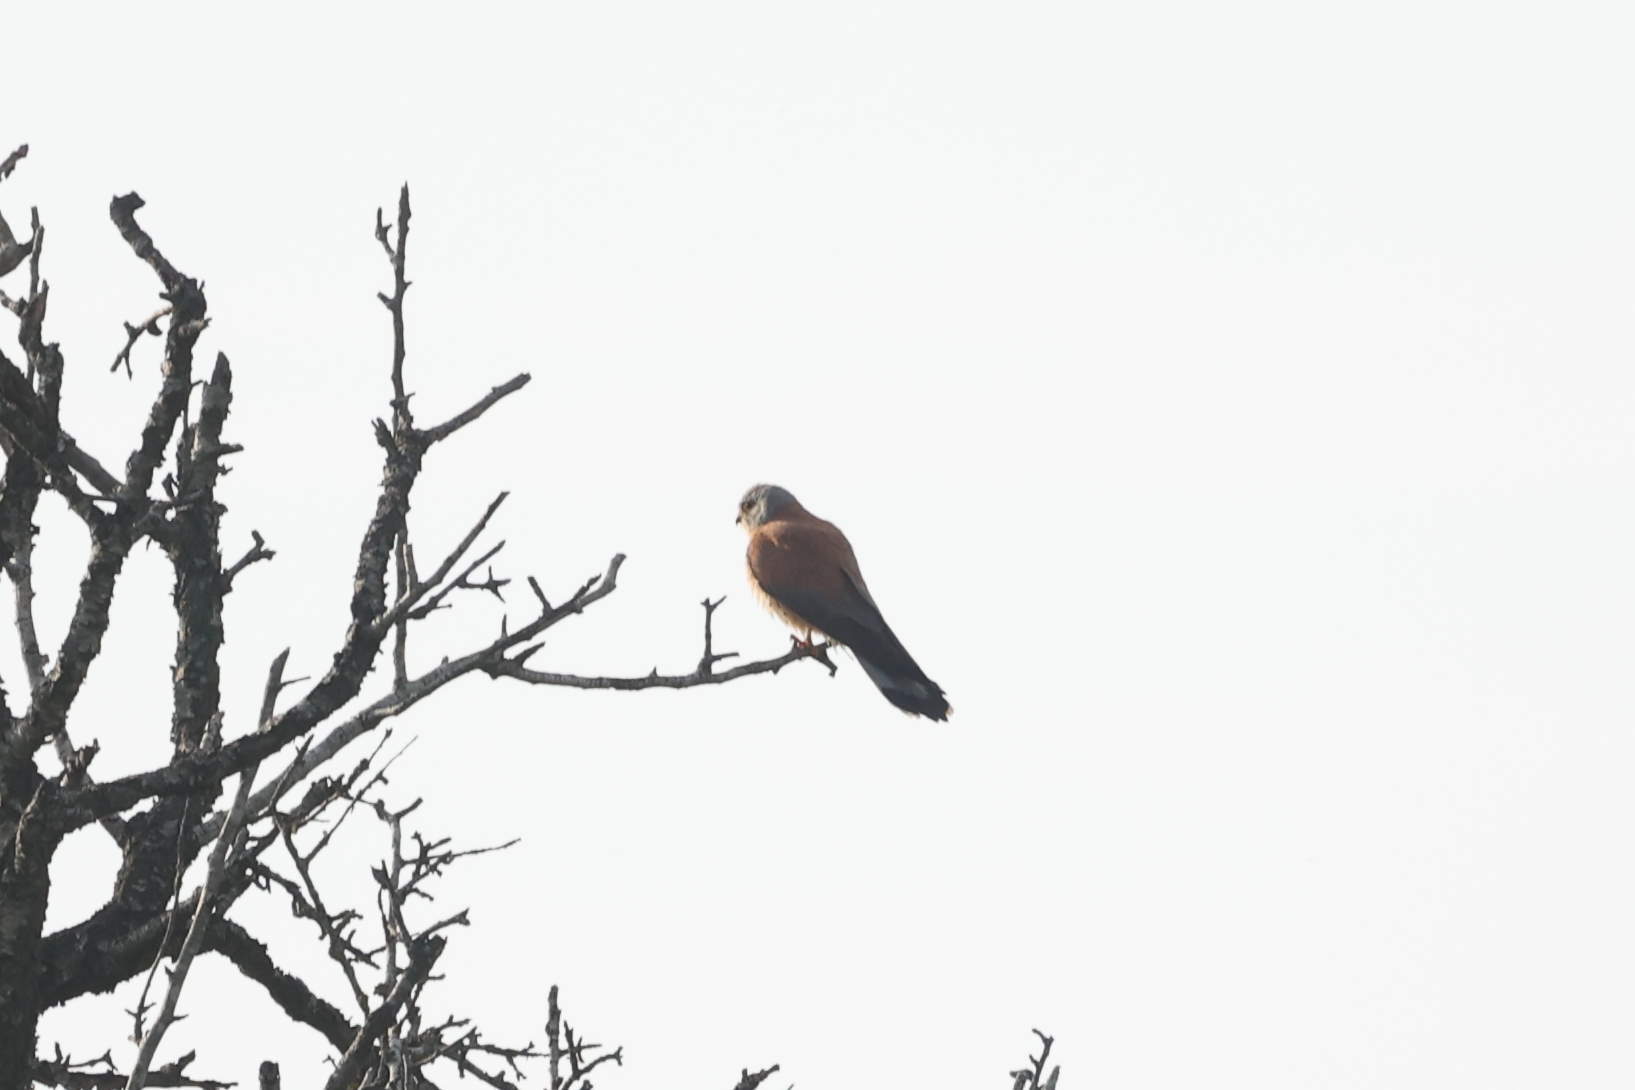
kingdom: Animalia
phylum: Chordata
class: Aves
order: Falconiformes
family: Falconidae
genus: Falco
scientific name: Falco naumanni
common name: Lesser kestrel
